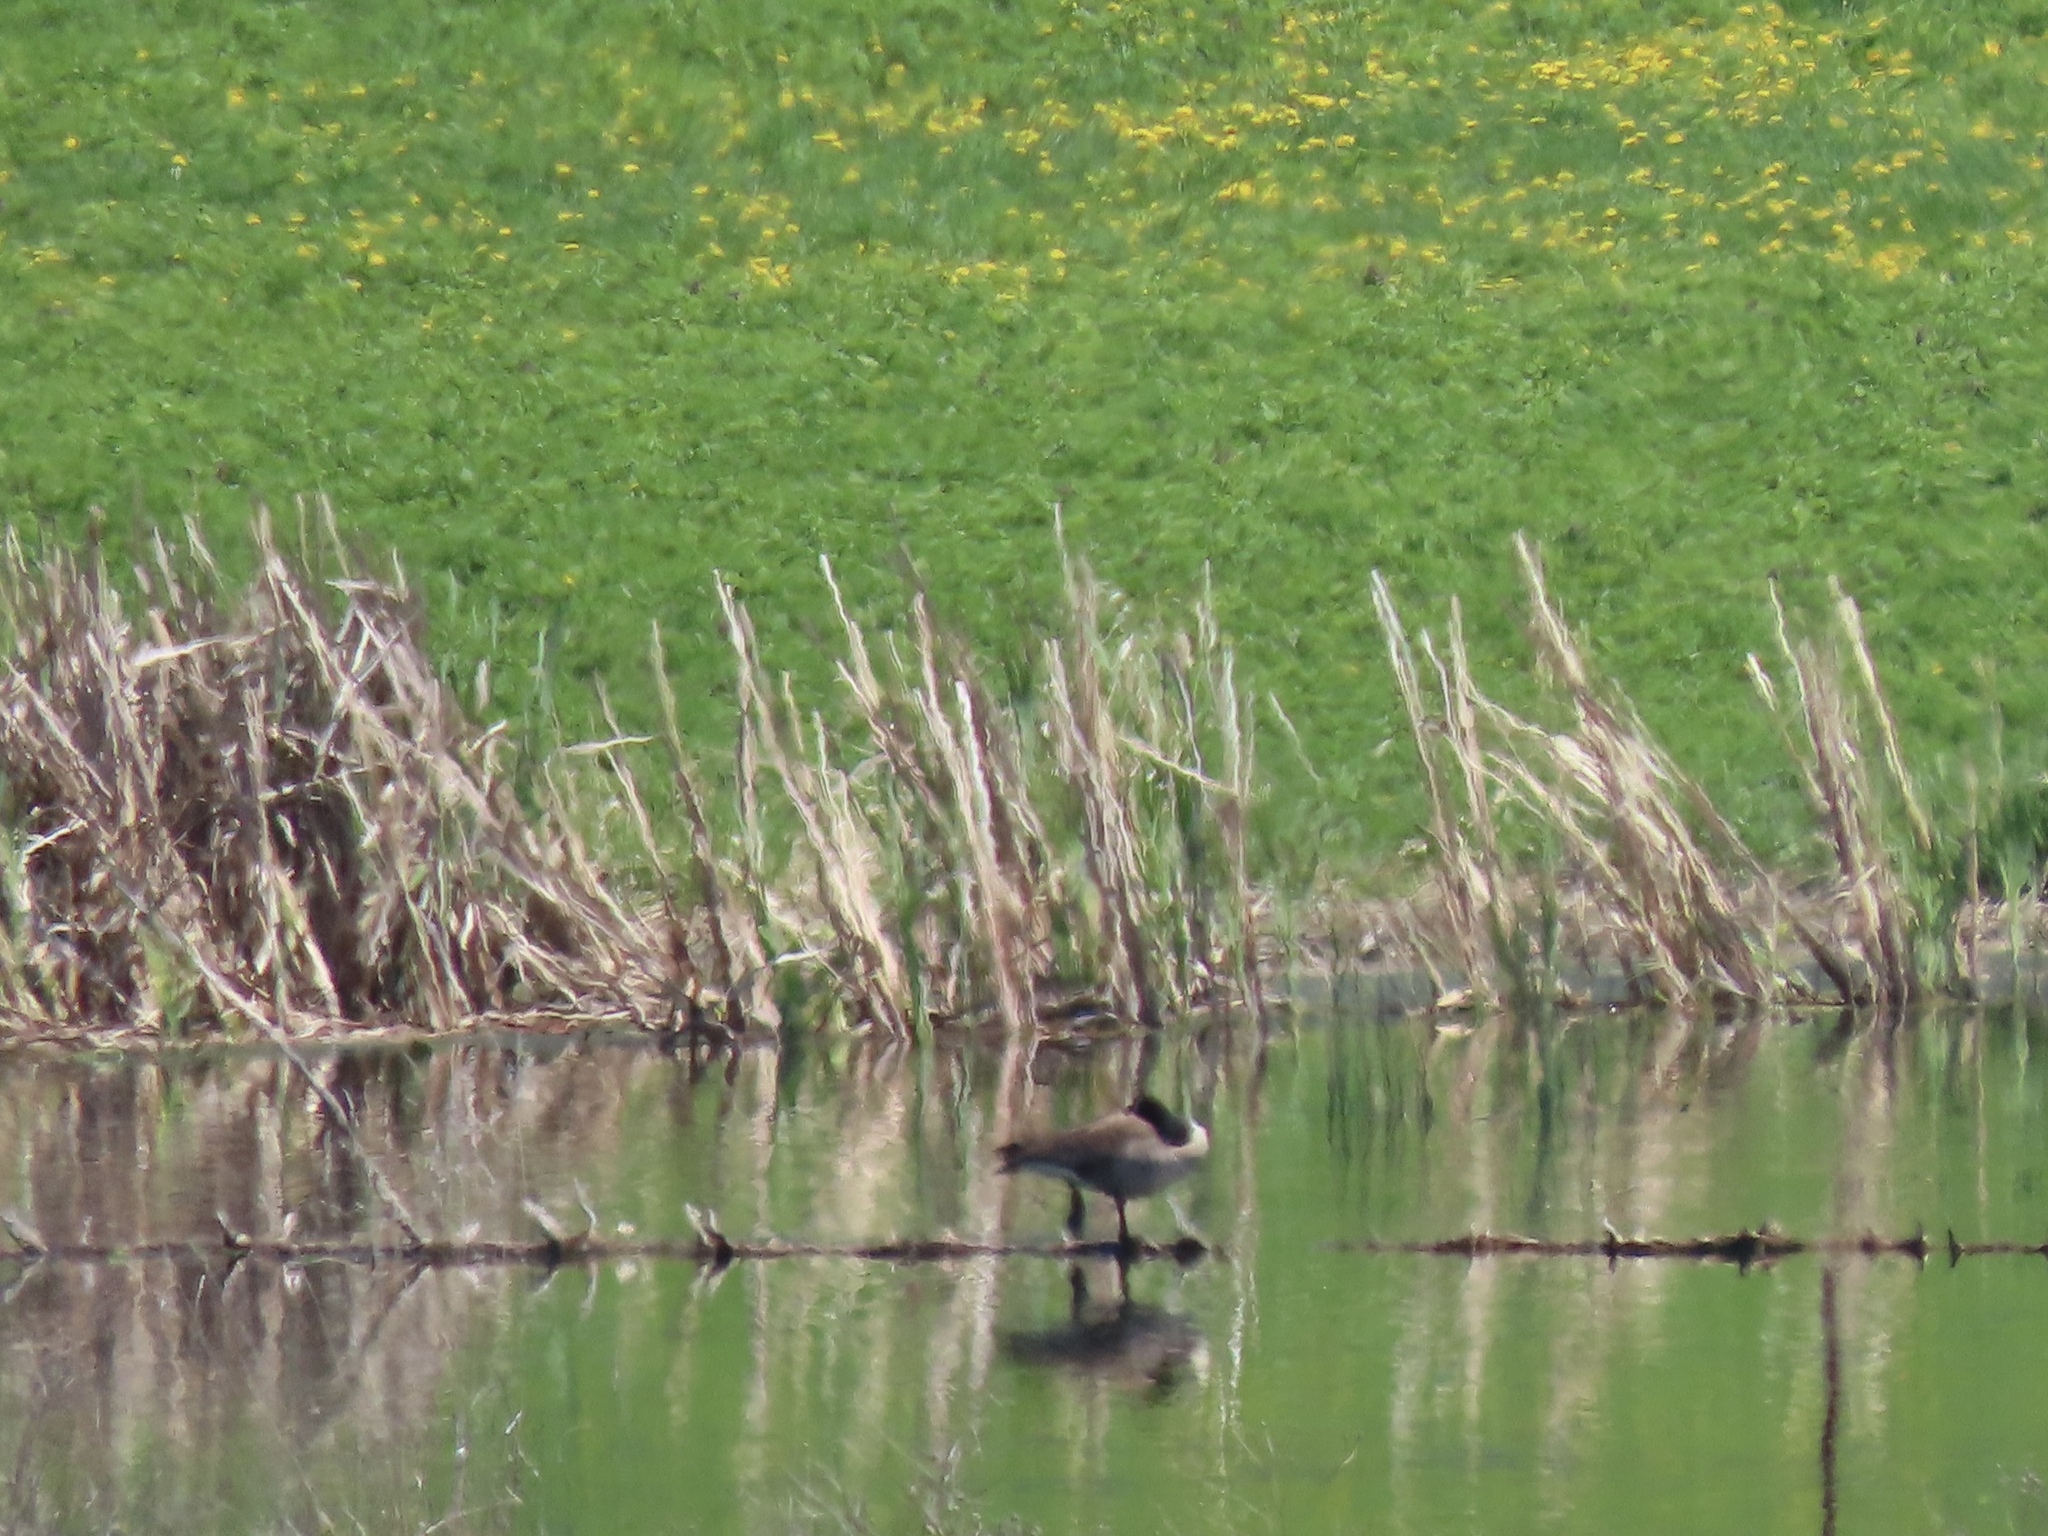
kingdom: Animalia
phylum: Chordata
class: Aves
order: Anseriformes
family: Anatidae
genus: Branta
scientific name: Branta canadensis
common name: Canada goose
